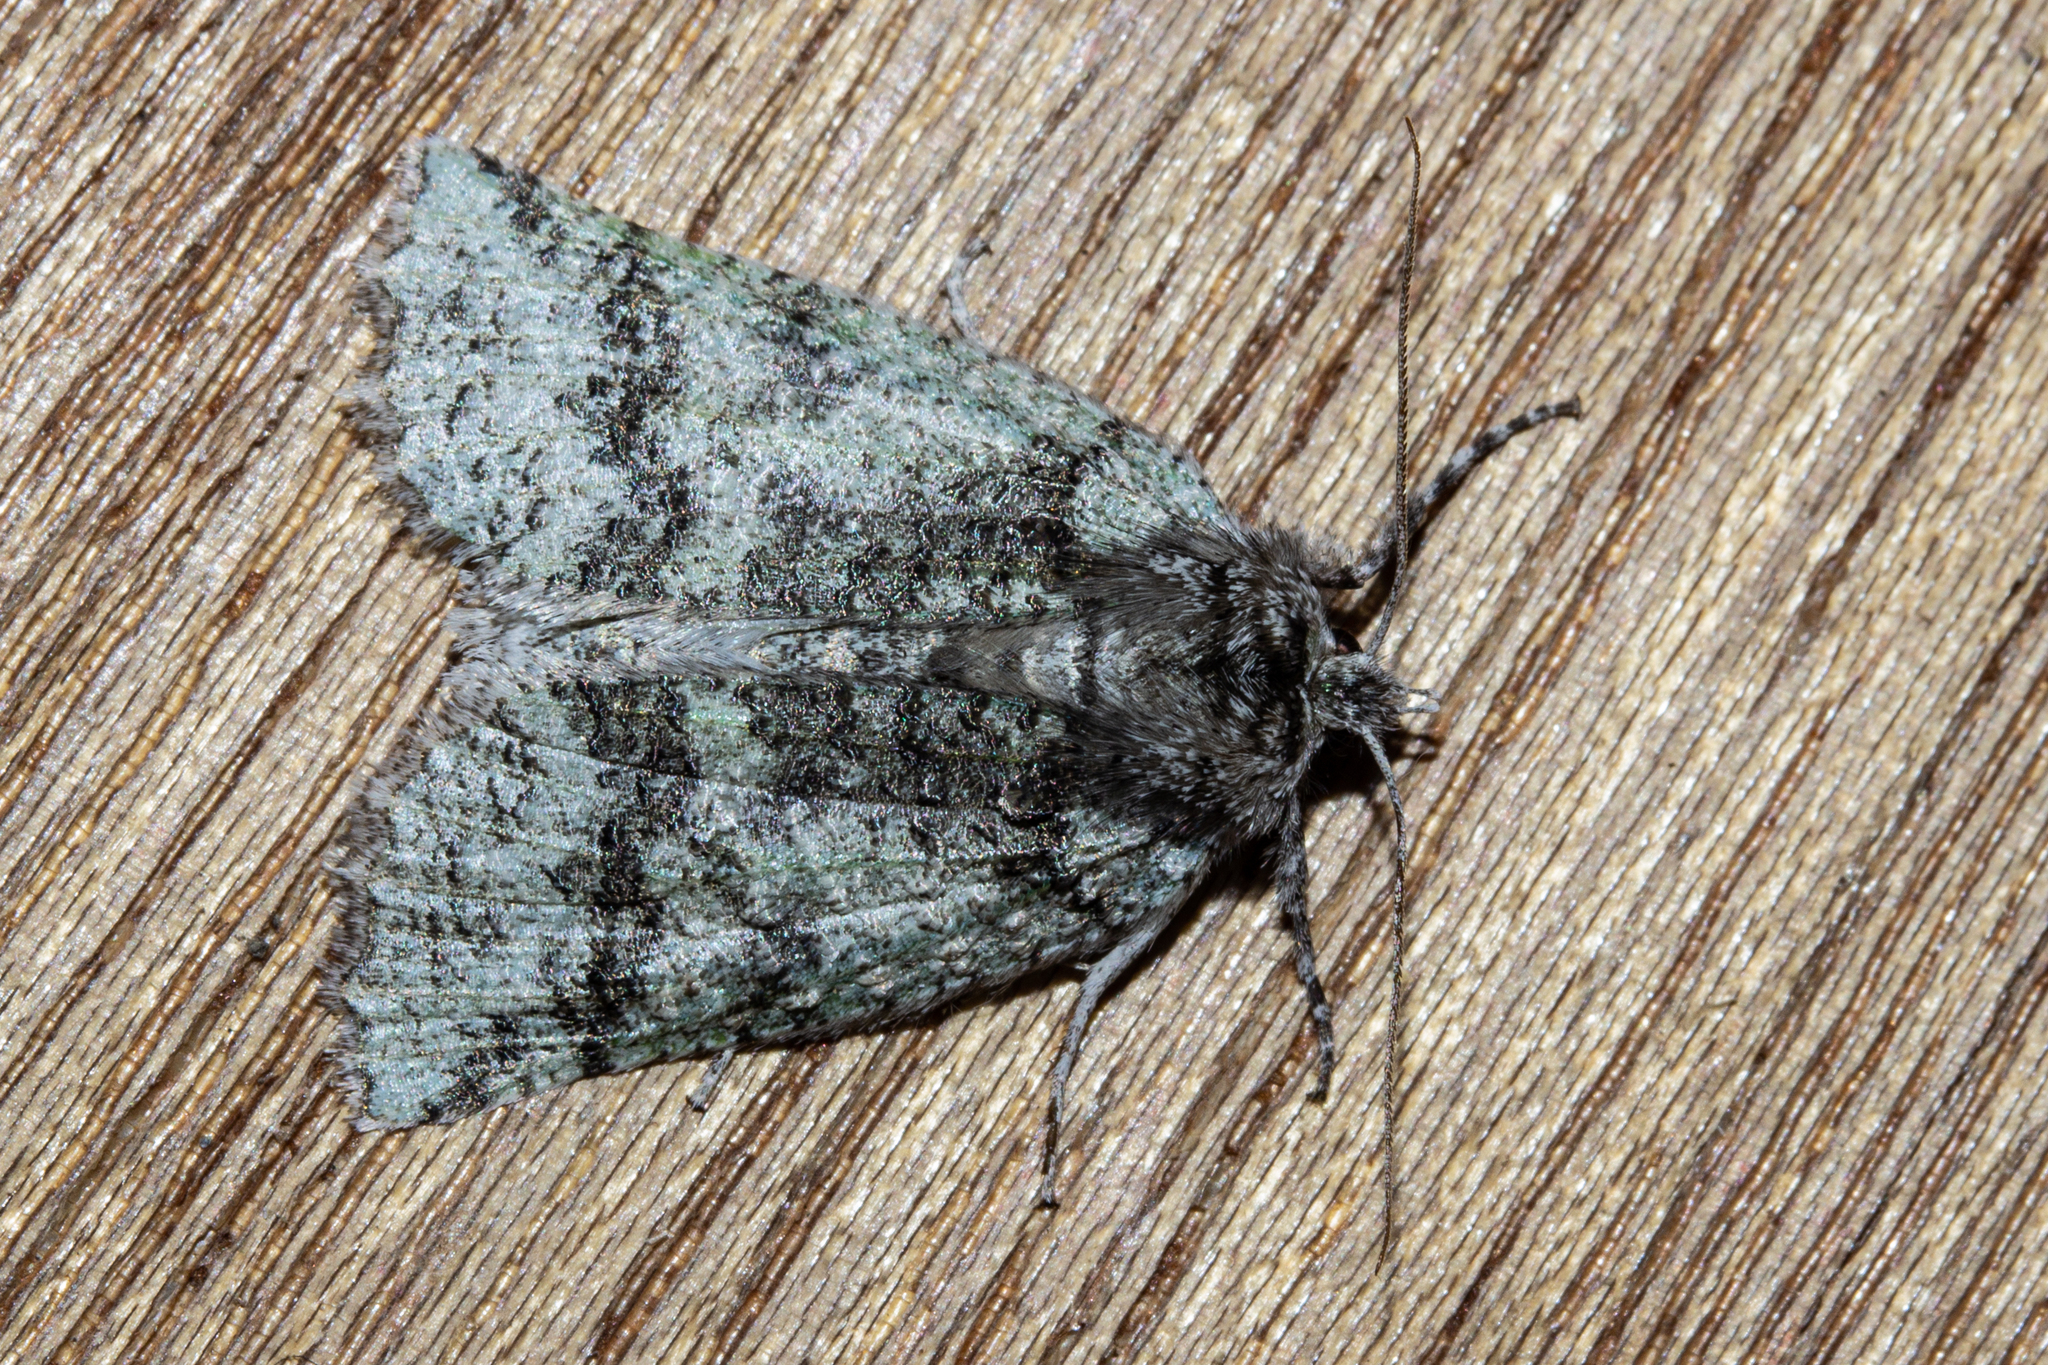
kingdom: Animalia
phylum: Arthropoda
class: Insecta
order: Lepidoptera
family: Geometridae
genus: Declana
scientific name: Declana floccosa
